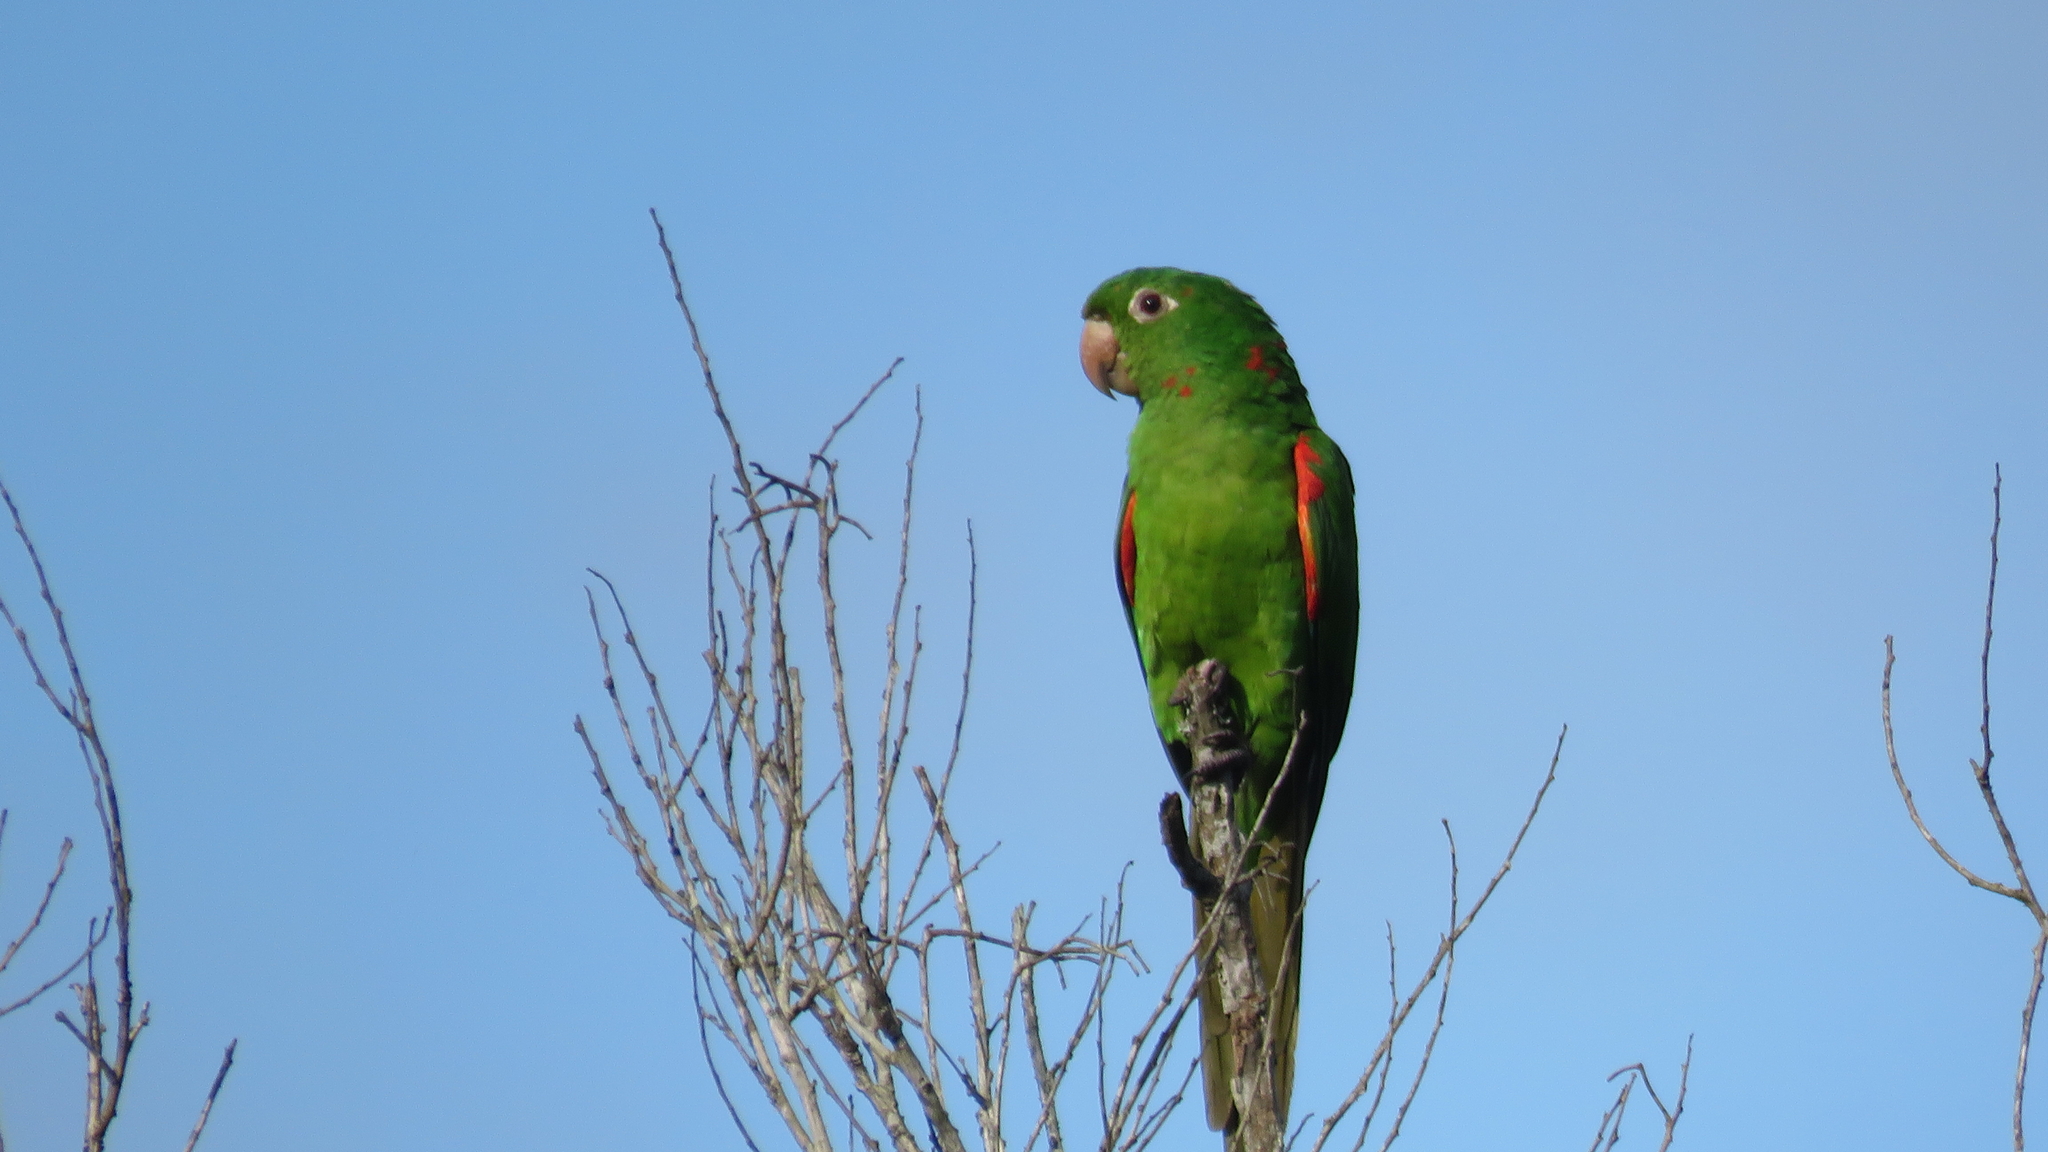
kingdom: Animalia
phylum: Chordata
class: Aves
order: Psittaciformes
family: Psittacidae
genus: Aratinga
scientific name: Aratinga leucophthalma
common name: White-eyed parakeet
